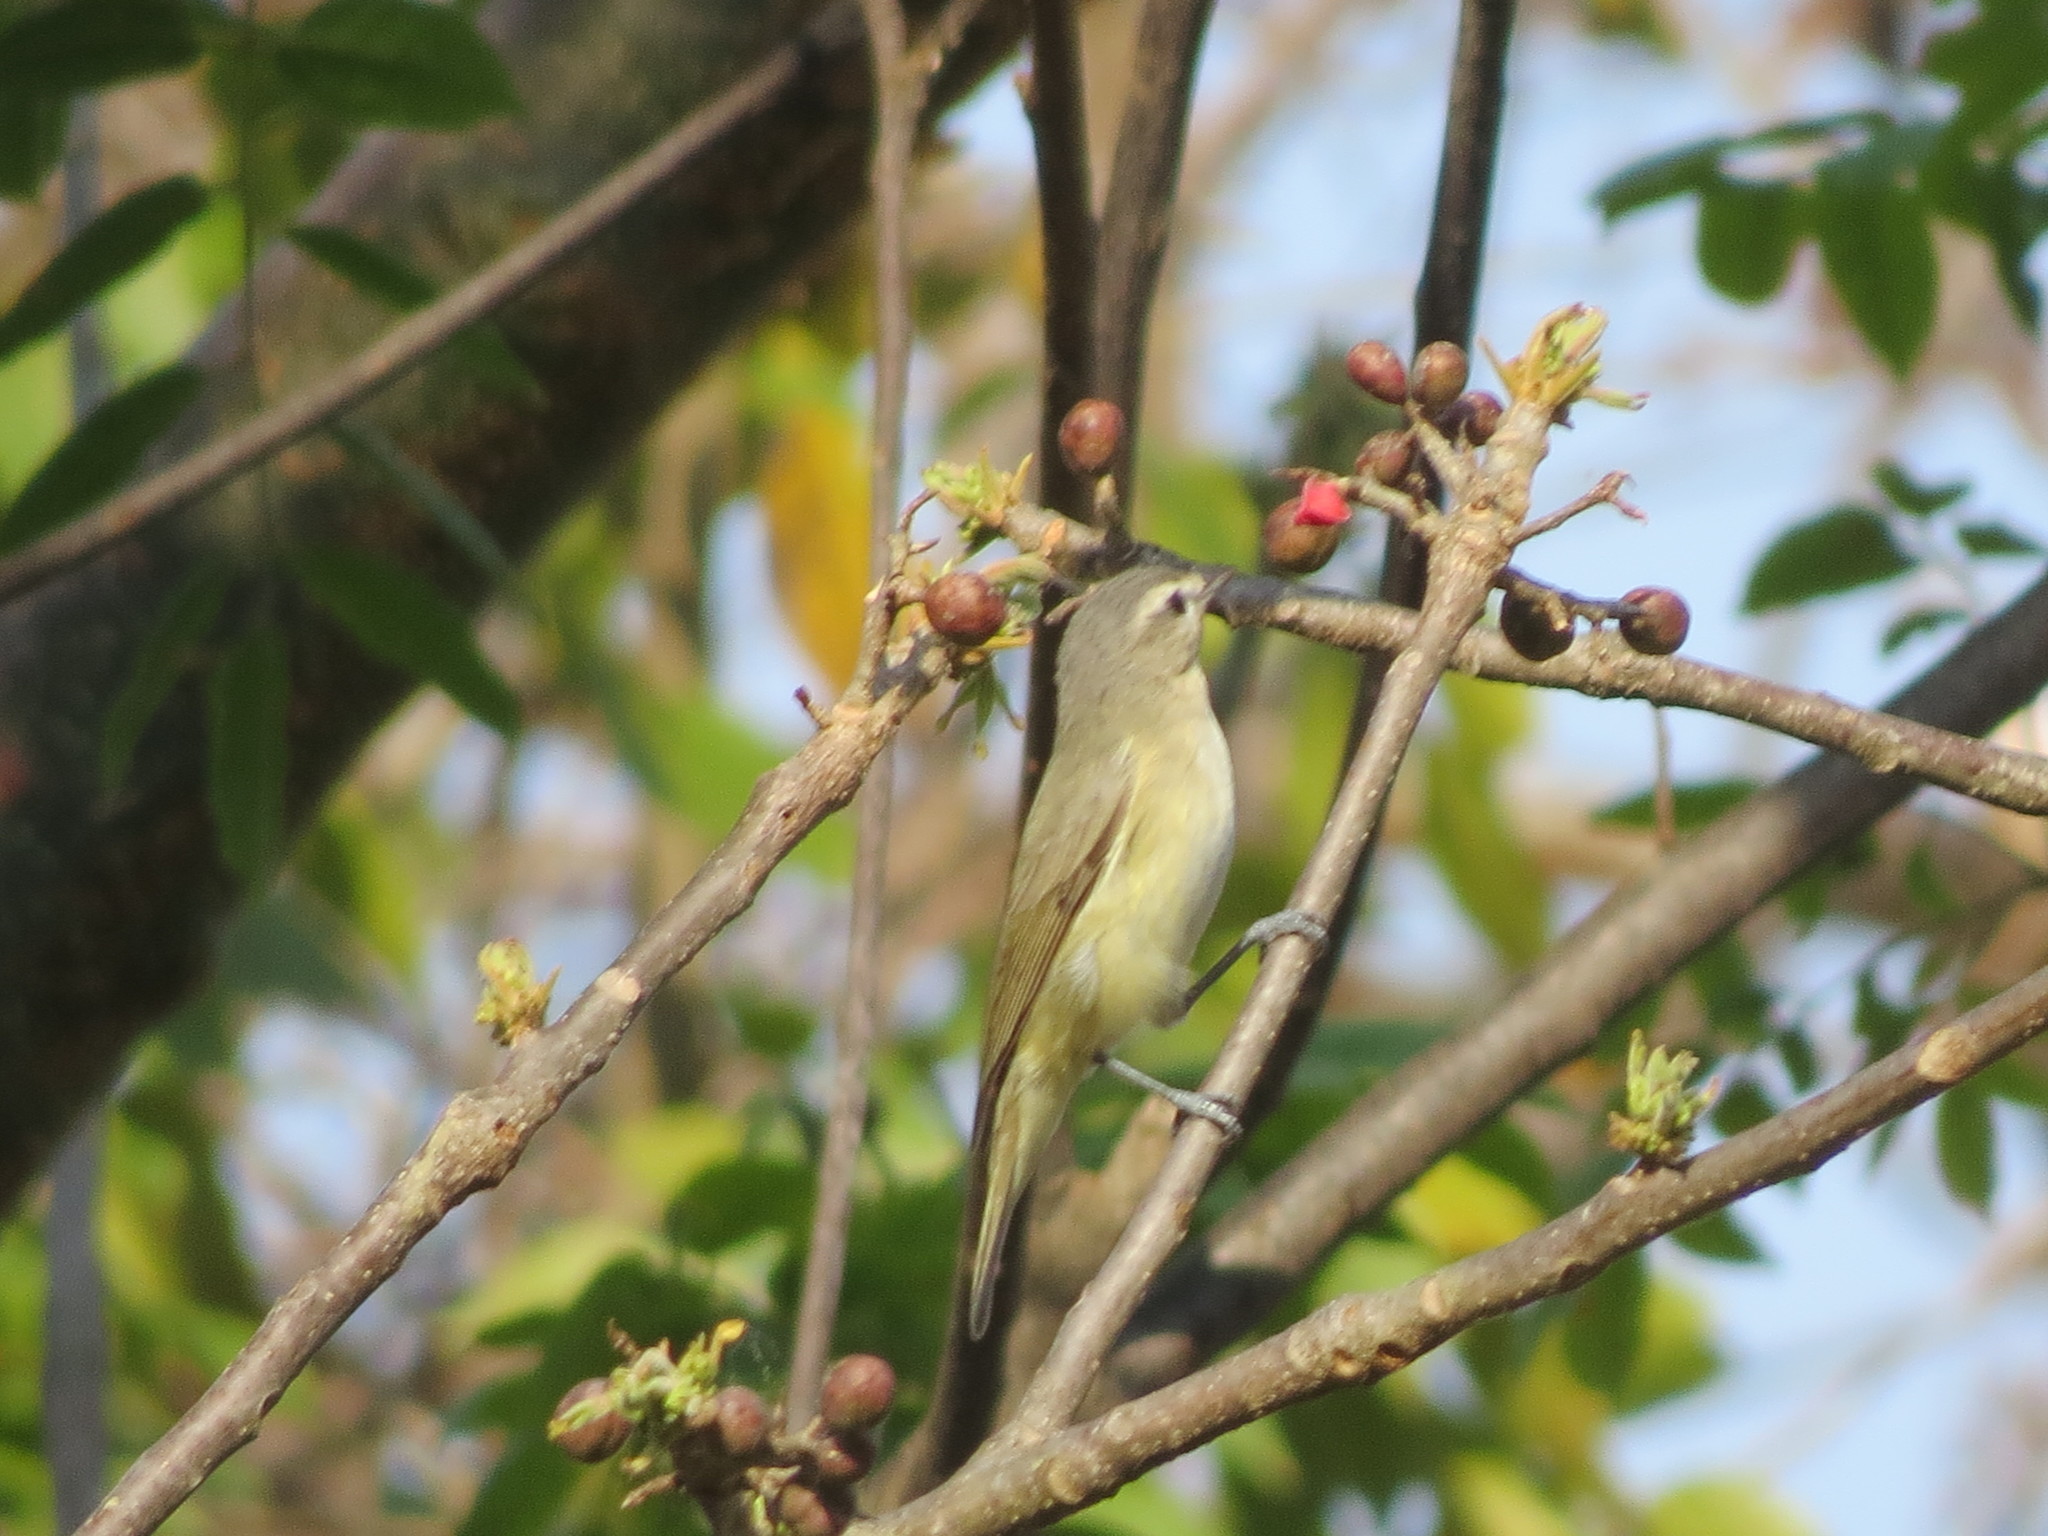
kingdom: Animalia
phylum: Chordata
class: Aves
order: Passeriformes
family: Vireonidae
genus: Vireo
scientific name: Vireo gilvus
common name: Warbling vireo
